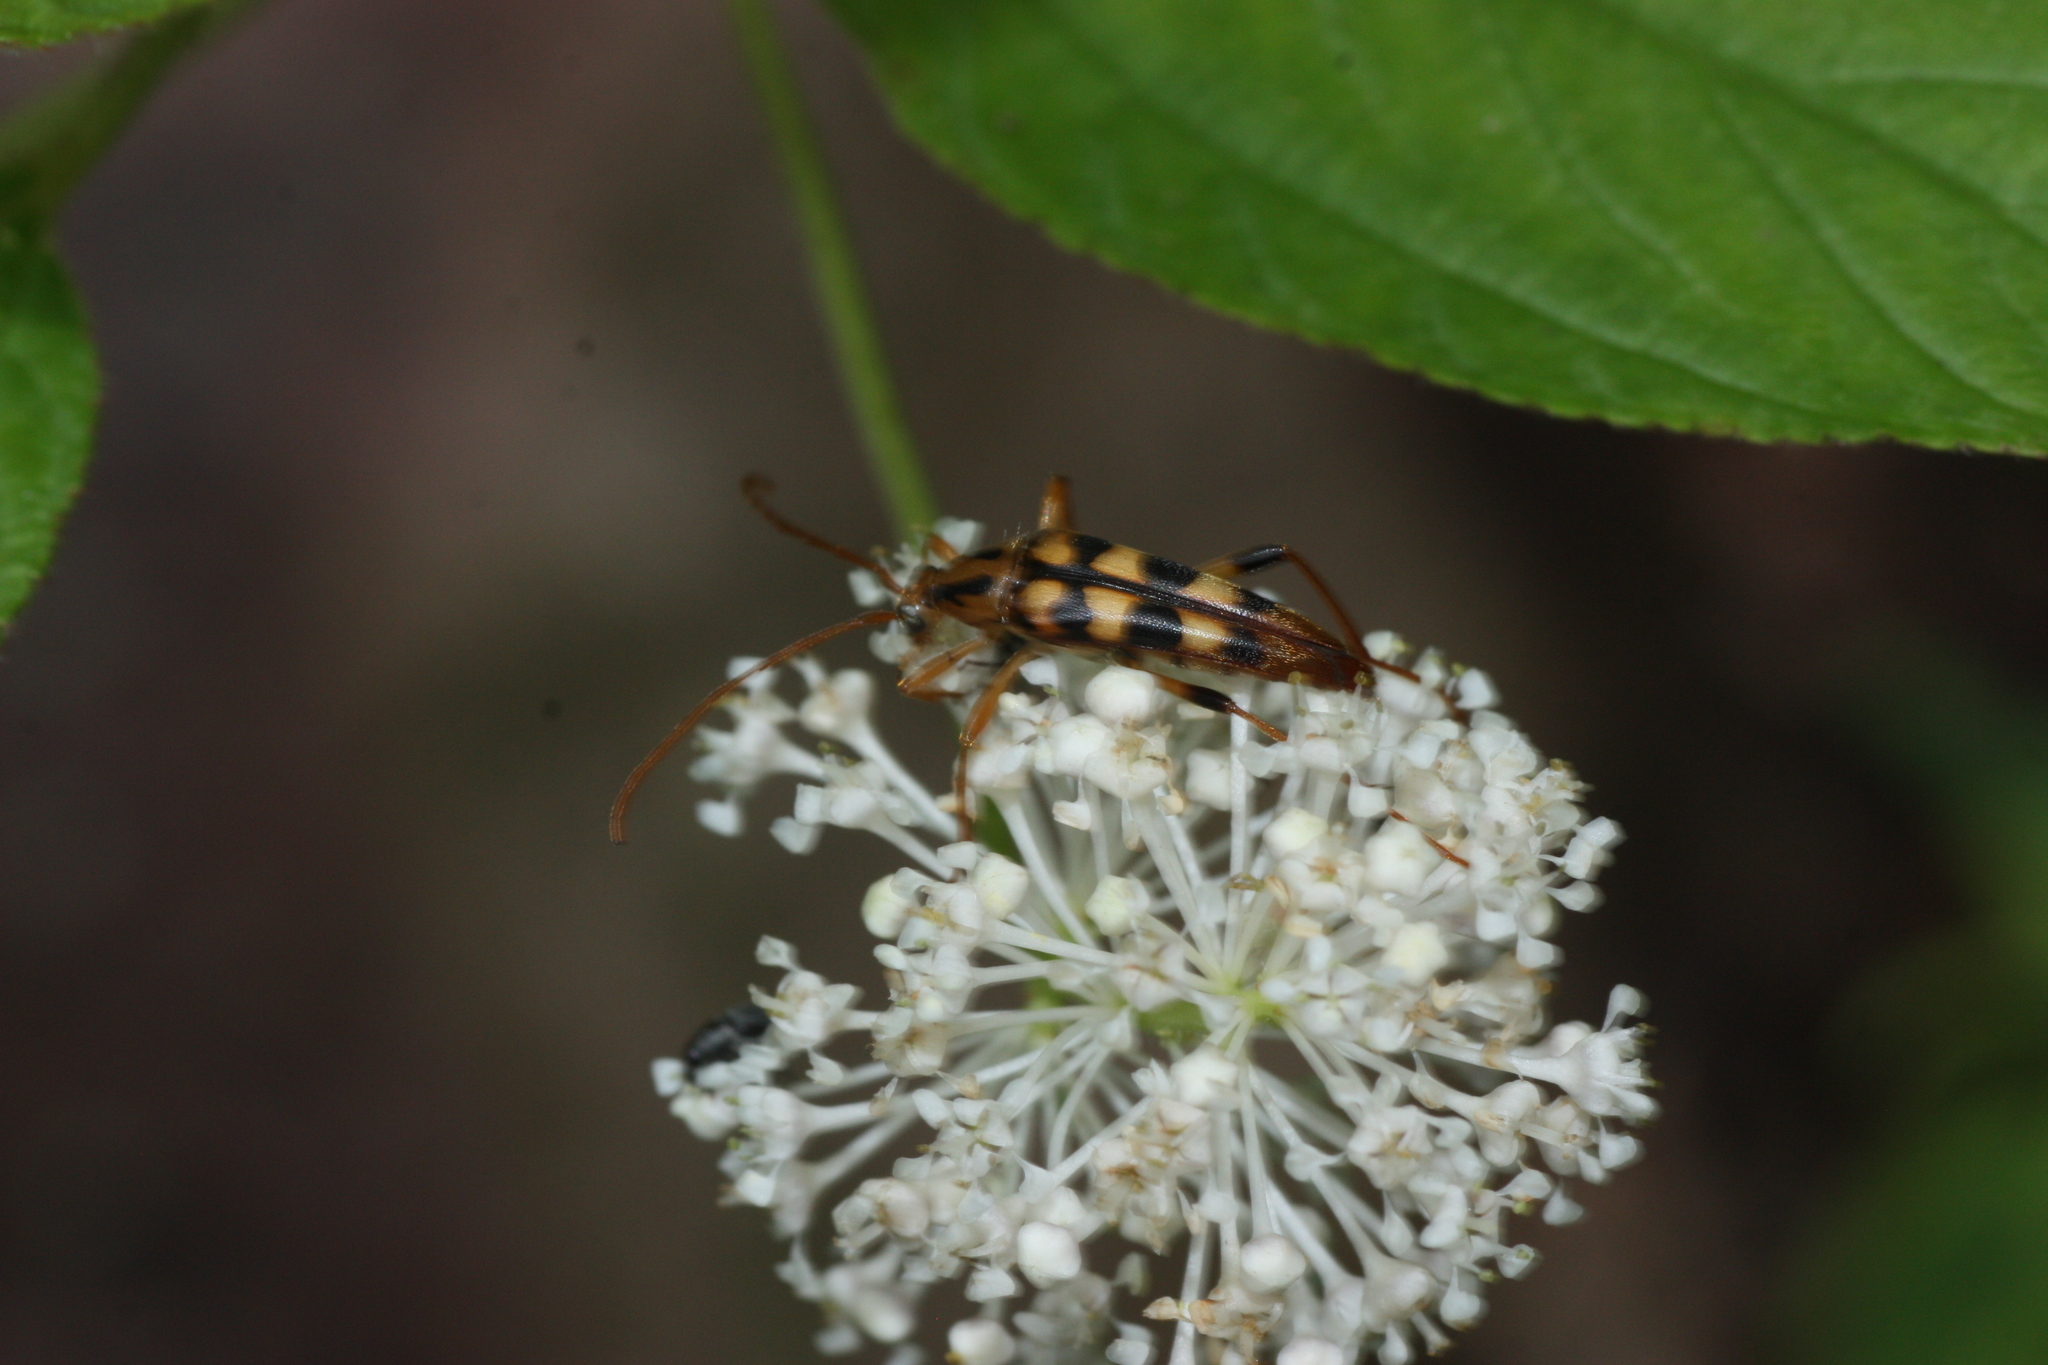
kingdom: Animalia
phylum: Arthropoda
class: Insecta
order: Coleoptera
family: Cerambycidae
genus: Strangalia
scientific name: Strangalia luteicornis
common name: Yellow-horned flower longhorn beetle
